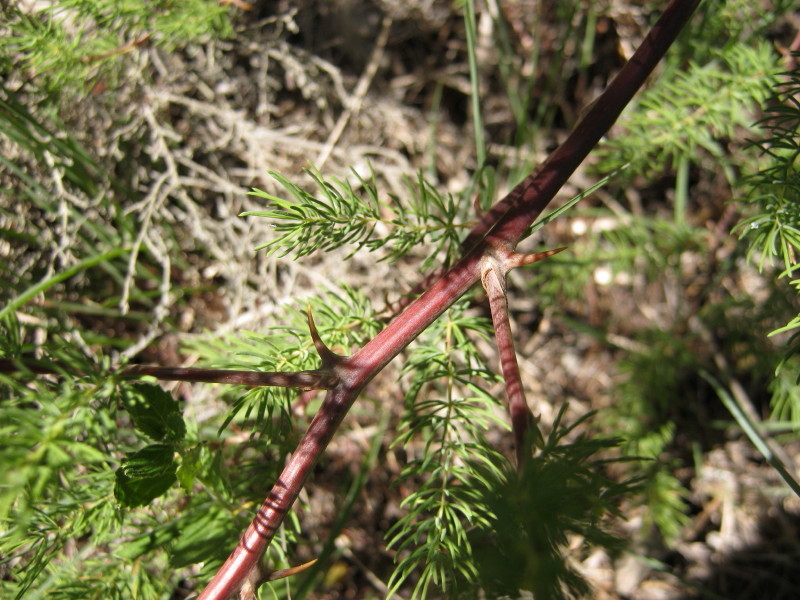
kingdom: Plantae
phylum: Tracheophyta
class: Liliopsida
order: Asparagales
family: Asparagaceae
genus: Asparagus
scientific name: Asparagus rubicundus
